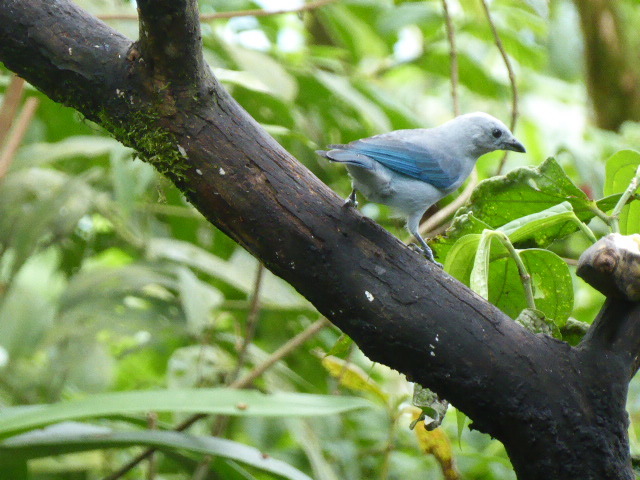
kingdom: Animalia
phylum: Chordata
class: Aves
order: Passeriformes
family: Thraupidae
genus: Thraupis
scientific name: Thraupis episcopus
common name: Blue-grey tanager
